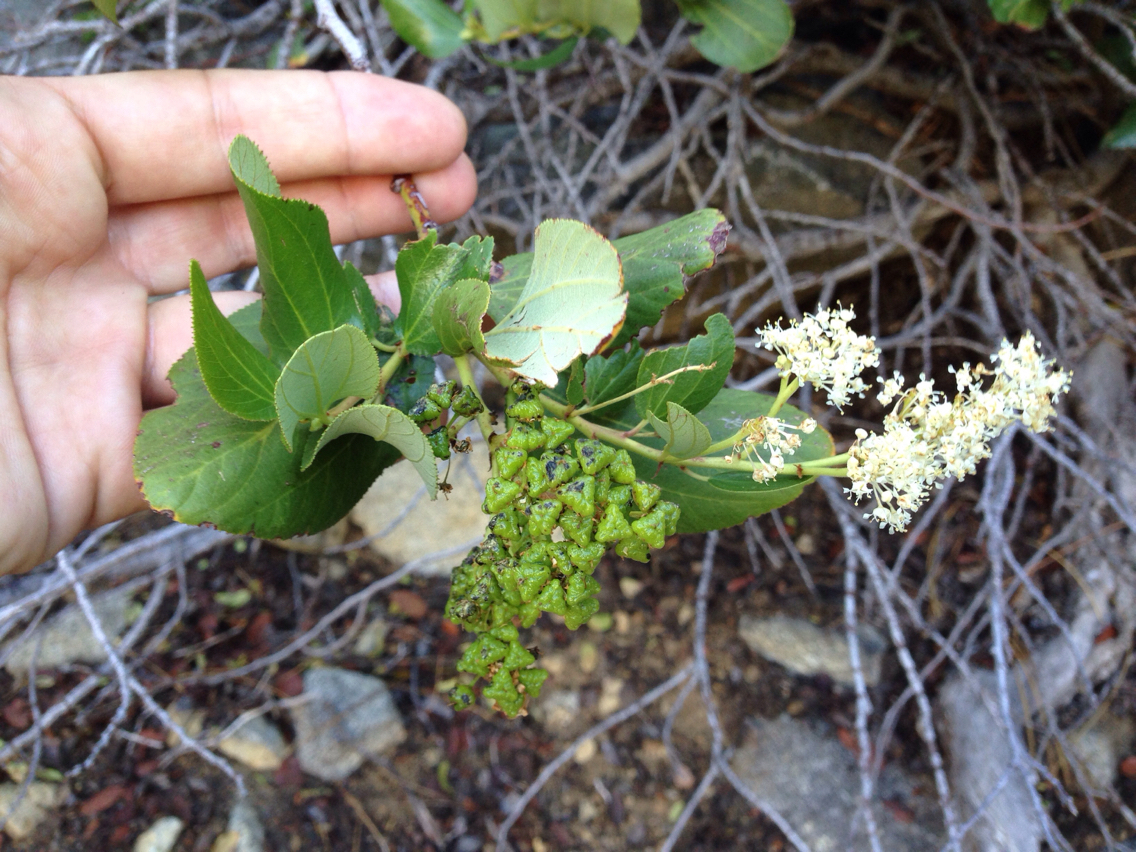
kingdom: Plantae
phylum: Tracheophyta
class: Magnoliopsida
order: Rosales
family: Rhamnaceae
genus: Ceanothus
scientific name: Ceanothus velutinus
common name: Snowbrush
